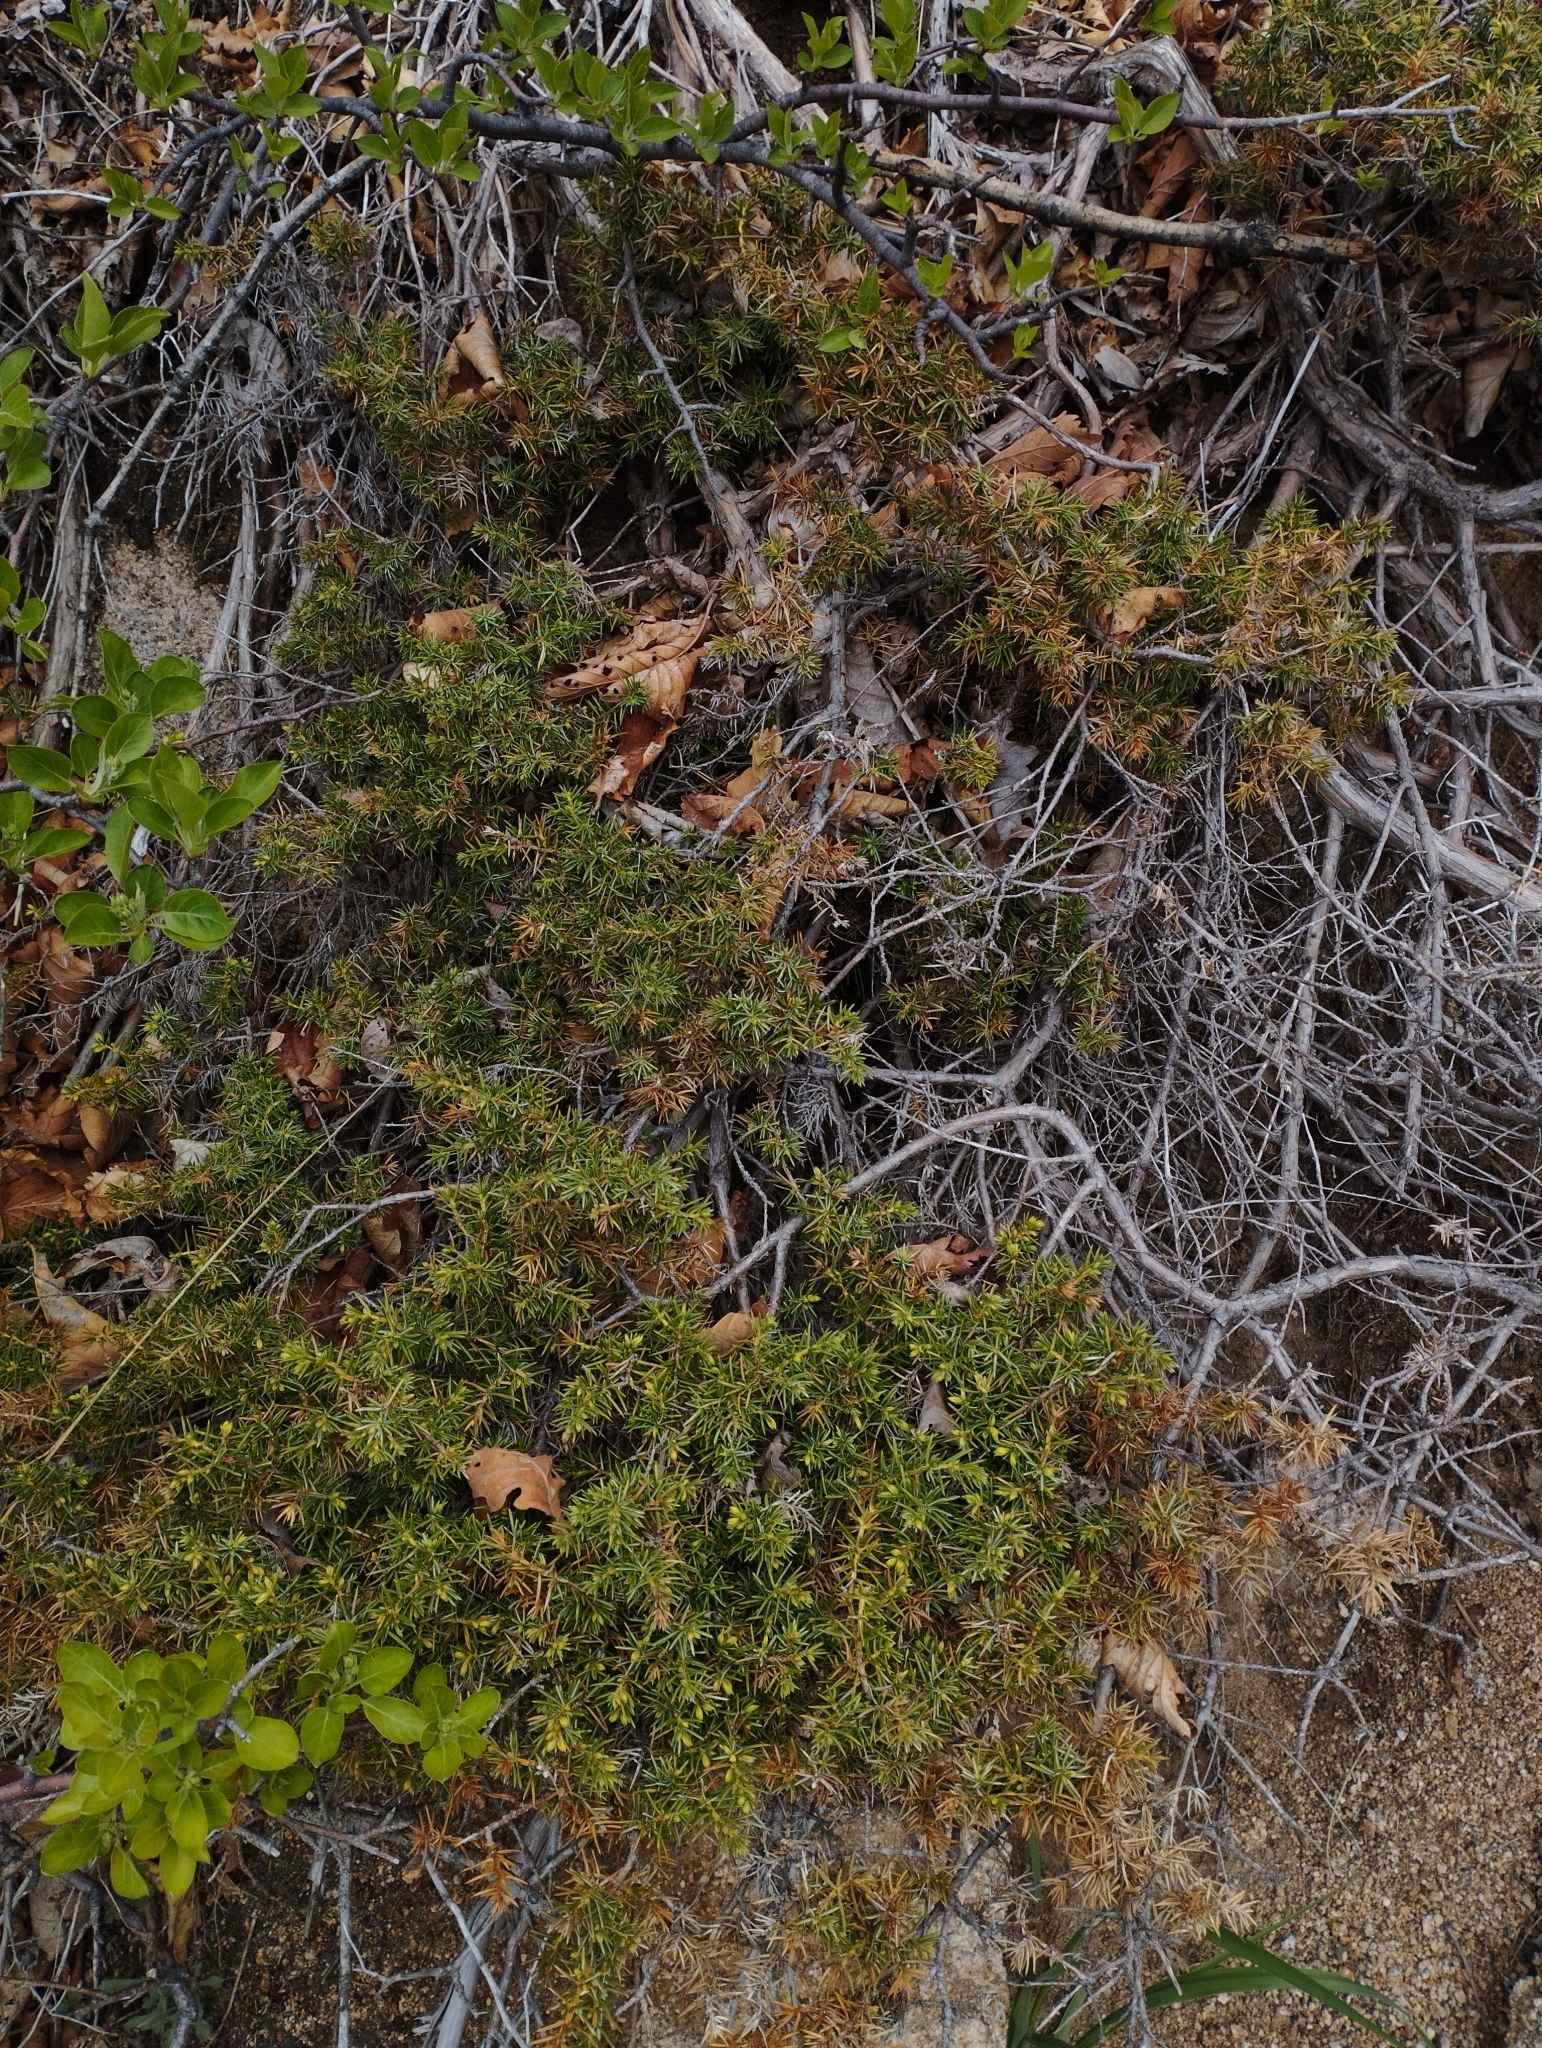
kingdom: Plantae
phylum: Tracheophyta
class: Pinopsida
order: Pinales
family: Cupressaceae
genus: Juniperus
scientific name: Juniperus rigida
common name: Needle juniper
